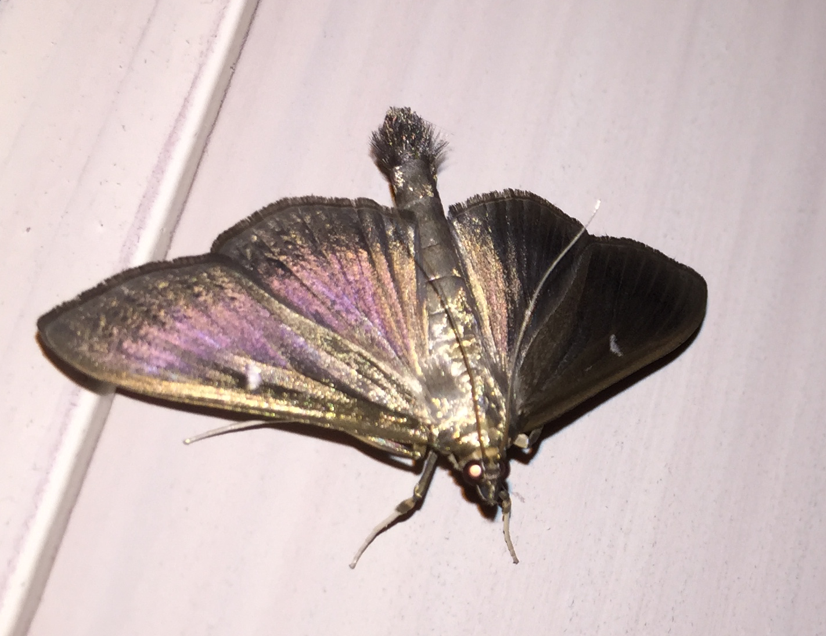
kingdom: Animalia
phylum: Arthropoda
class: Insecta
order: Lepidoptera
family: Crambidae
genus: Cydalima
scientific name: Cydalima perspectalis
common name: Box tree moth
